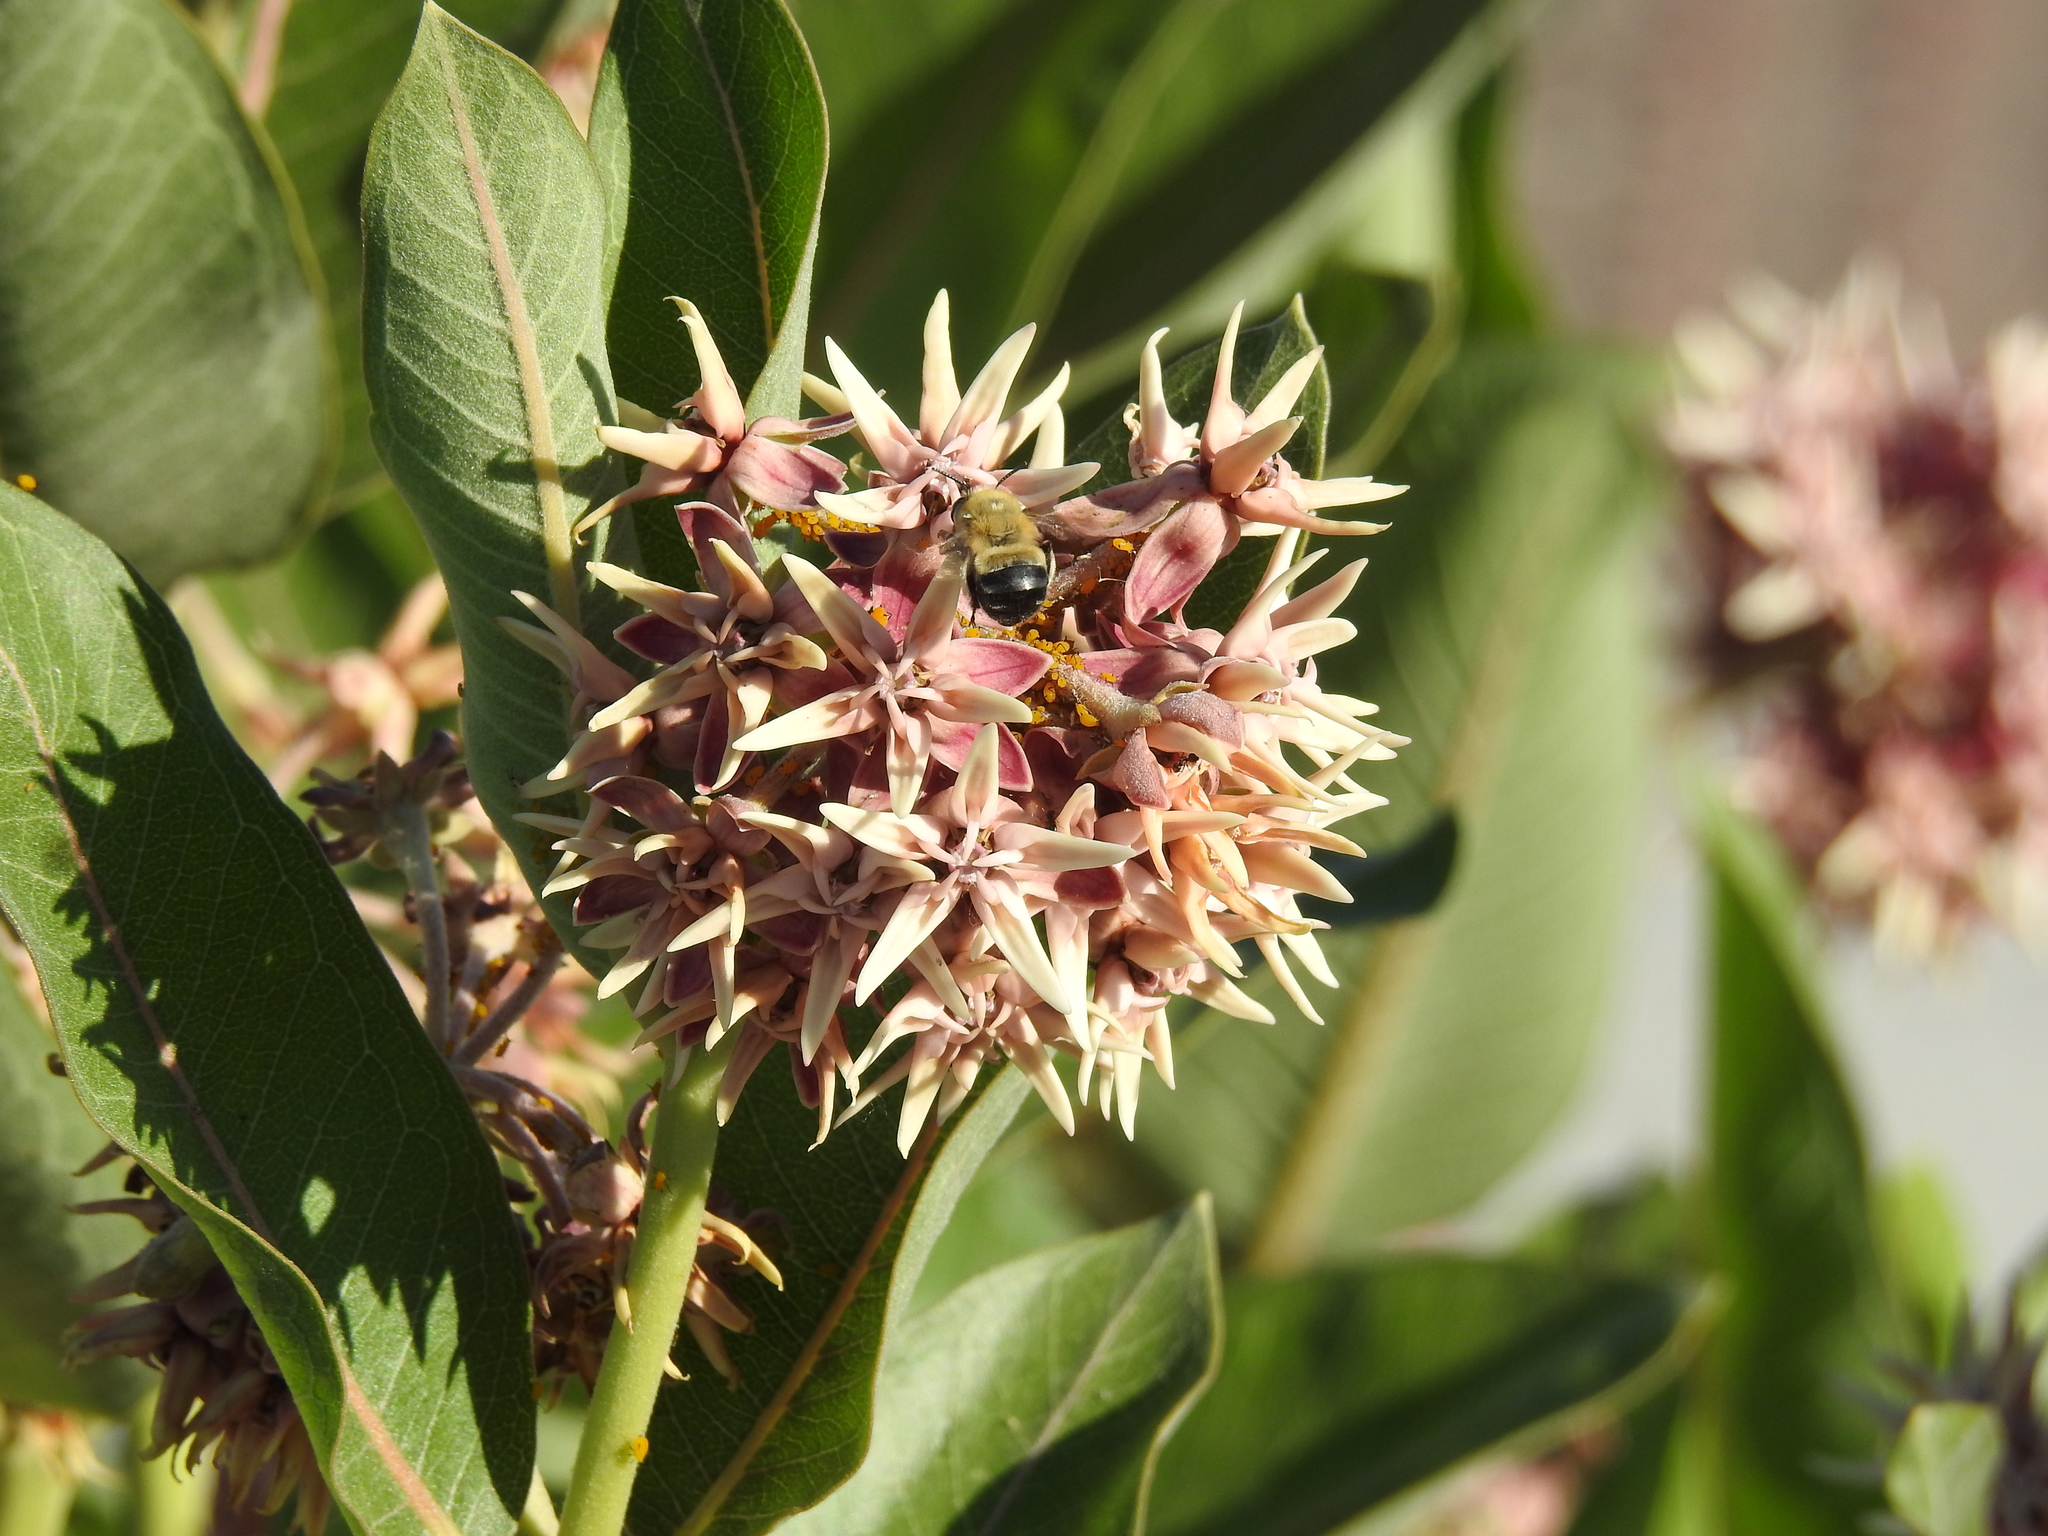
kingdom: Plantae
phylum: Tracheophyta
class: Magnoliopsida
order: Gentianales
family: Apocynaceae
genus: Asclepias
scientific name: Asclepias speciosa
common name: Showy milkweed
